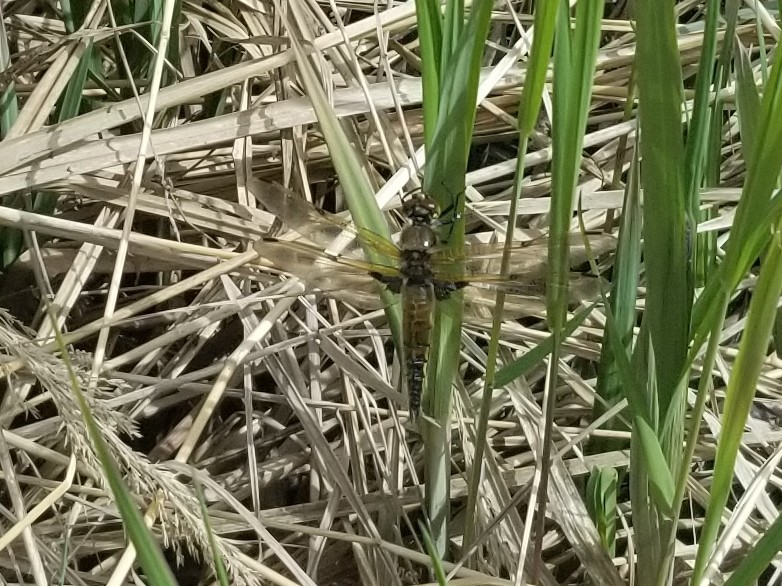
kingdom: Animalia
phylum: Arthropoda
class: Insecta
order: Odonata
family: Libellulidae
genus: Libellula
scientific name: Libellula quadrimaculata
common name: Four-spotted chaser
